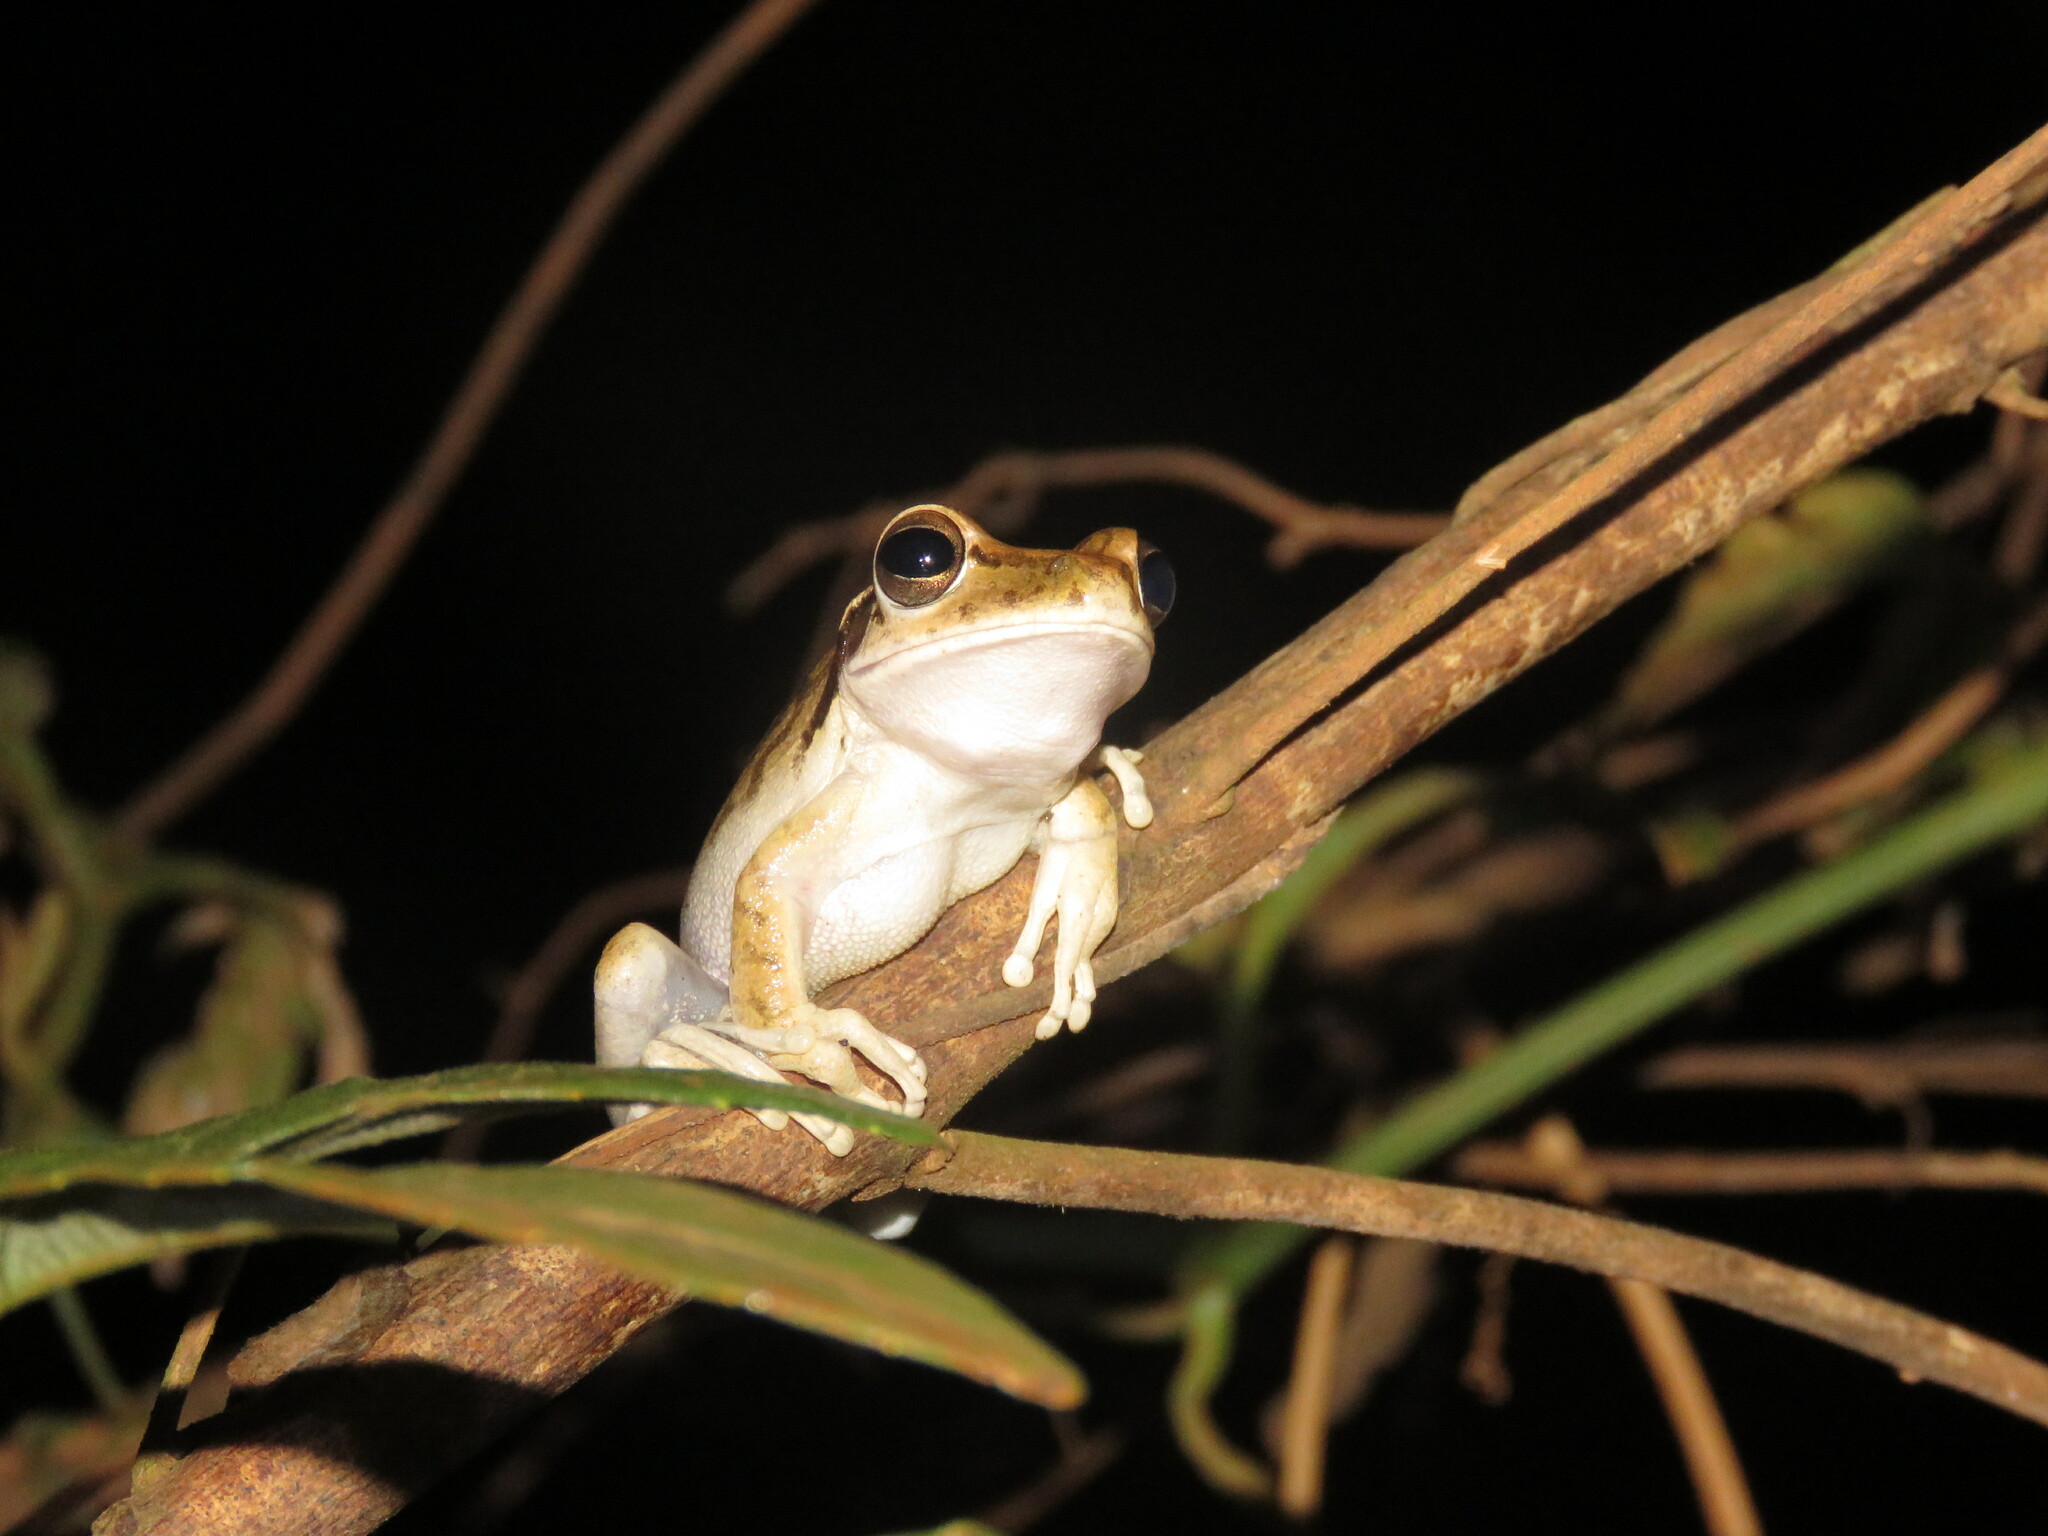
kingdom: Animalia
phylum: Chordata
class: Amphibia
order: Anura
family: Hylidae
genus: Boana
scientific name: Boana raniceps
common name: Chaco treefrog
